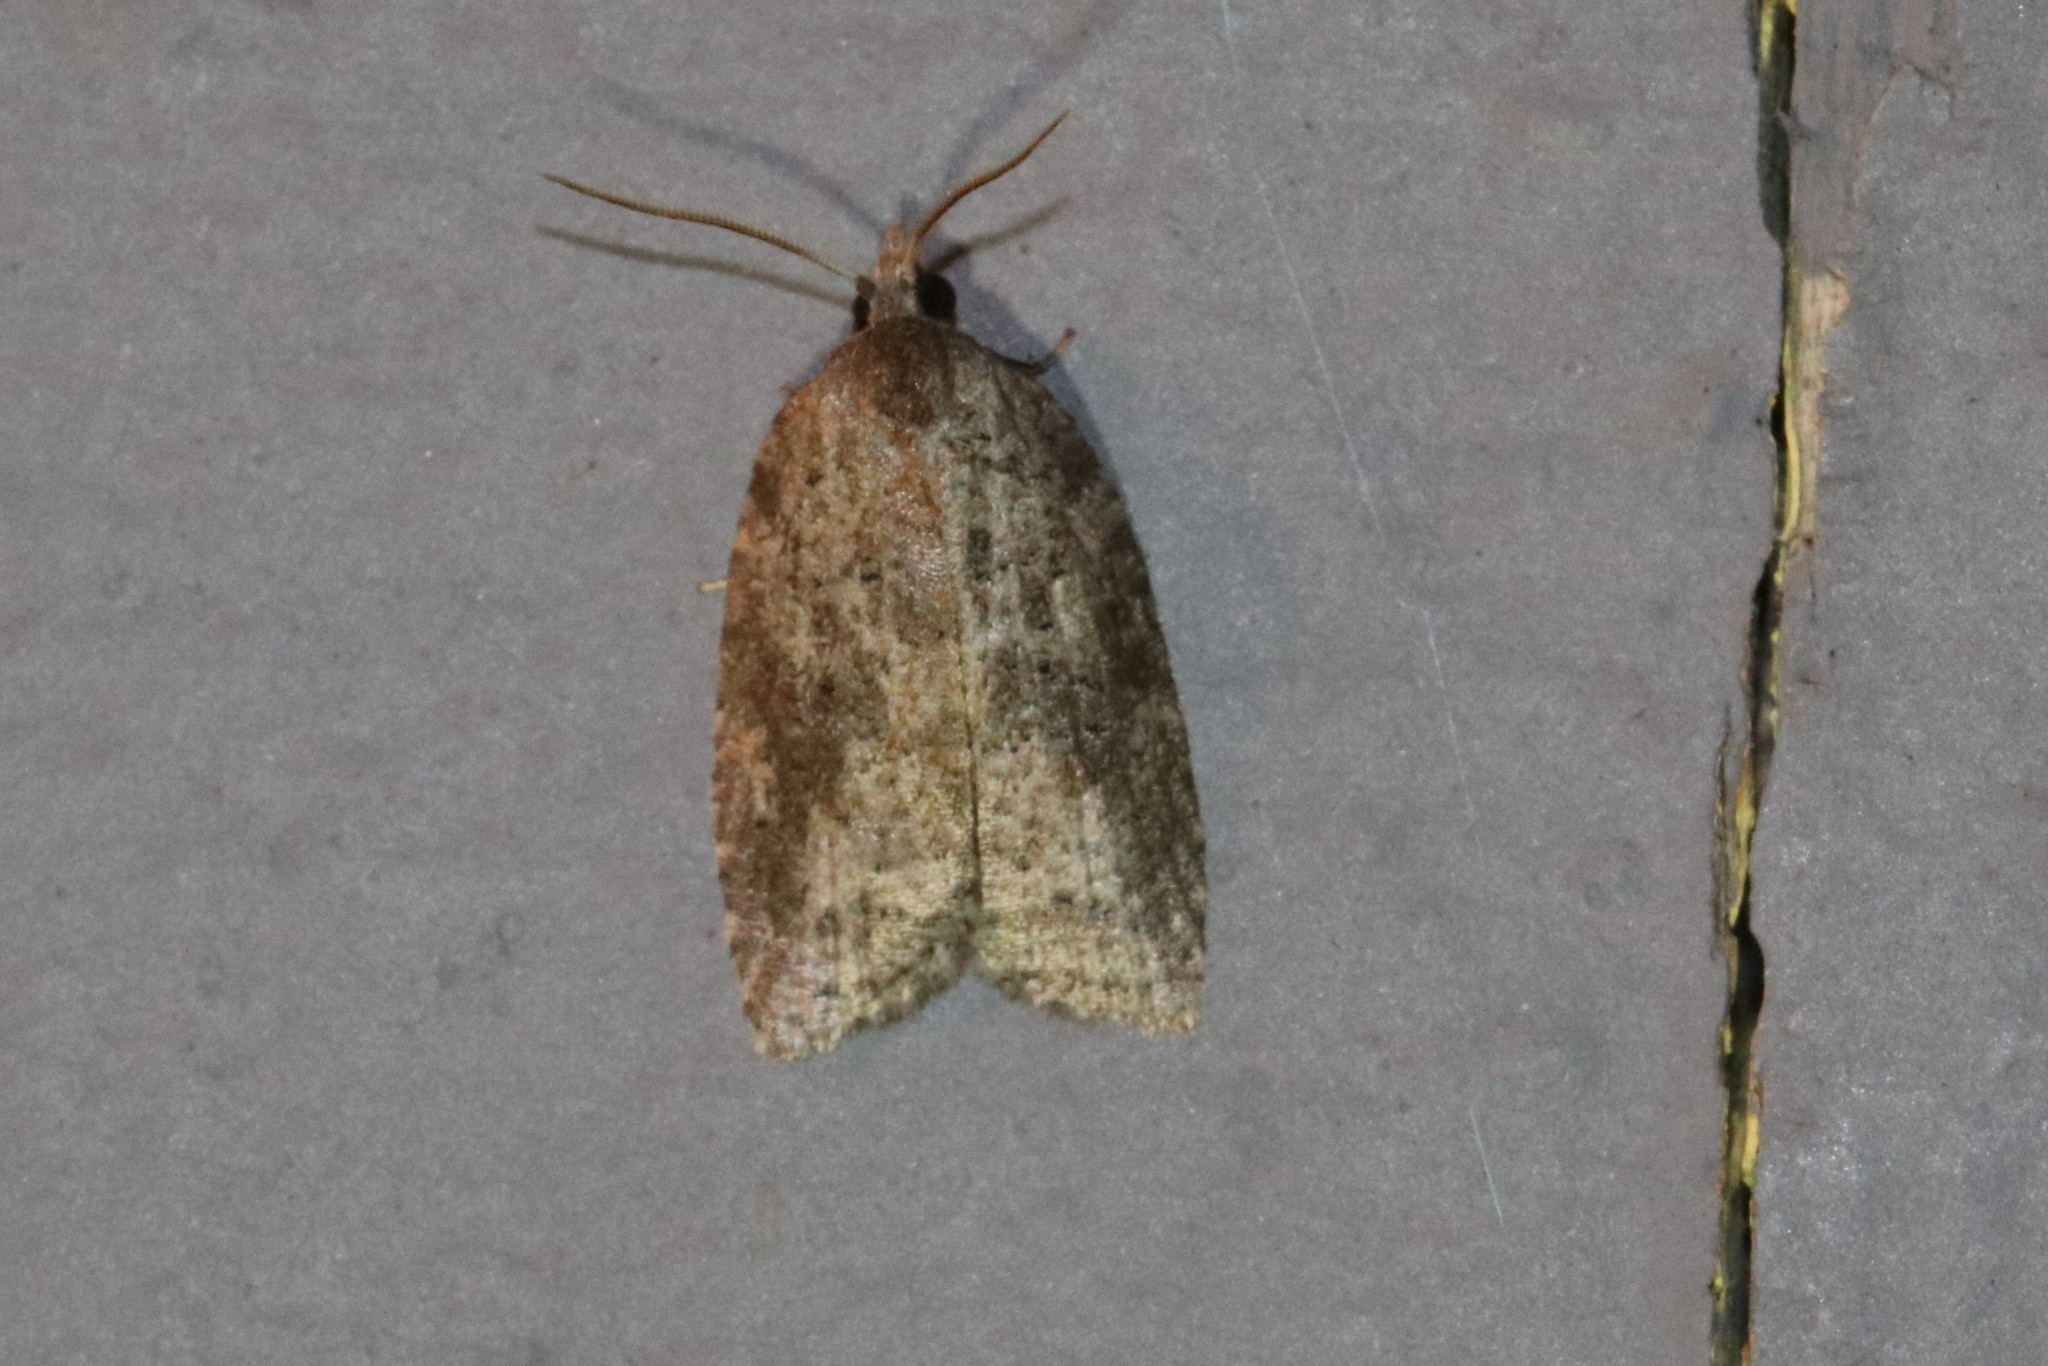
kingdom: Animalia
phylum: Arthropoda
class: Insecta
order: Lepidoptera
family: Tortricidae
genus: Amorbia
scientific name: Amorbia humerosana
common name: White-lined leafroller moth
